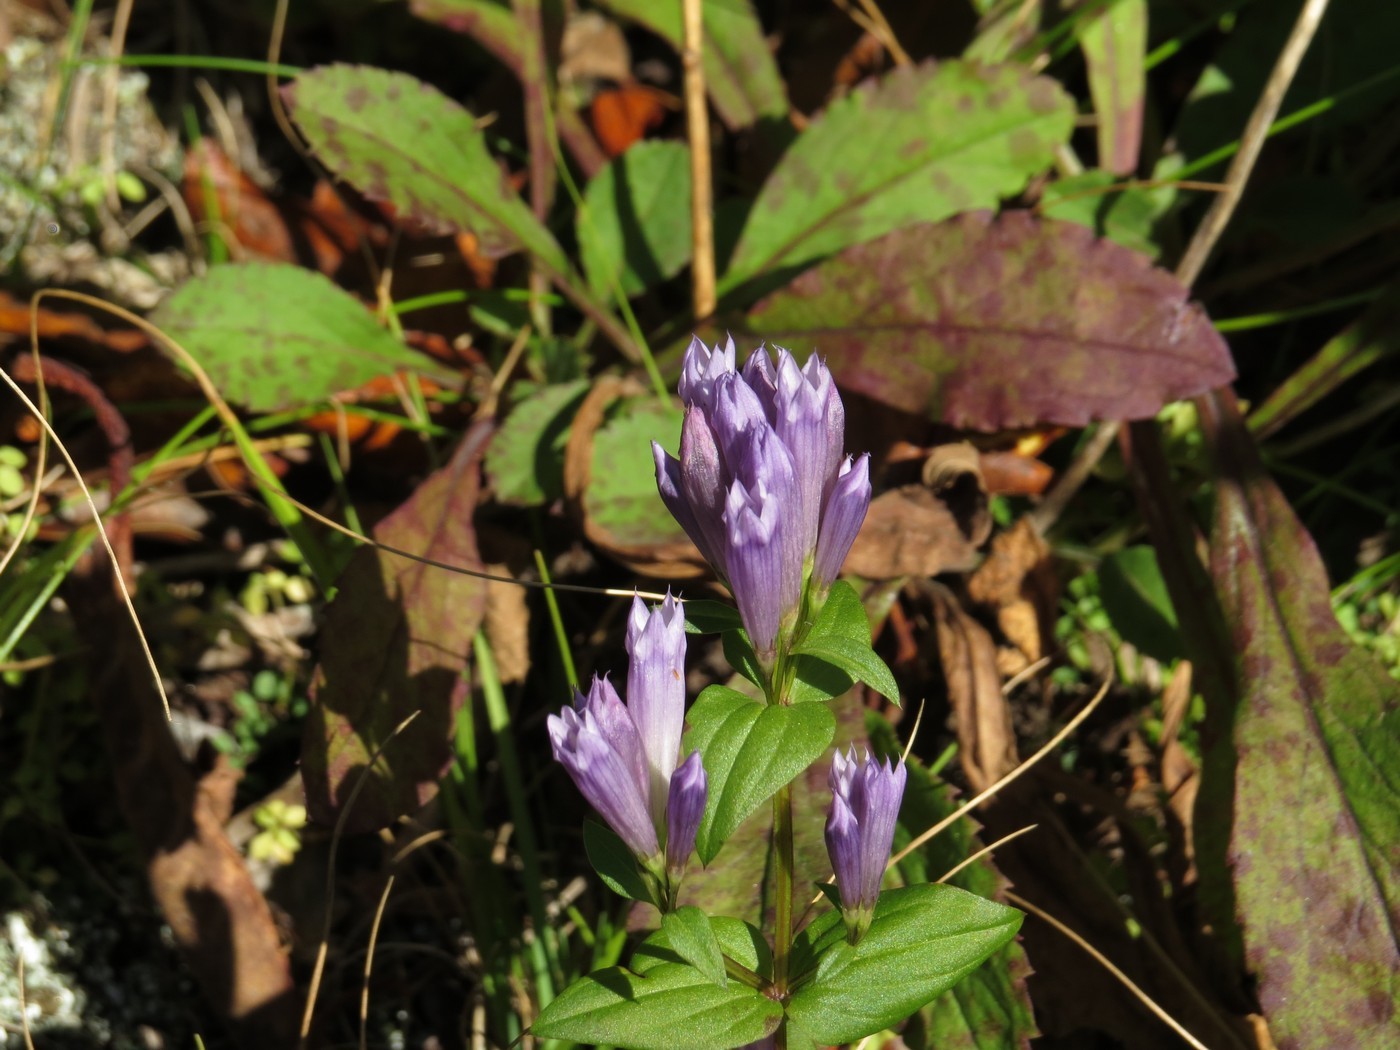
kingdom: Plantae
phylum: Tracheophyta
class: Magnoliopsida
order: Gentianales
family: Gentianaceae
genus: Gentianella
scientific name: Gentianella quinquefolia
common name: Agueweed
